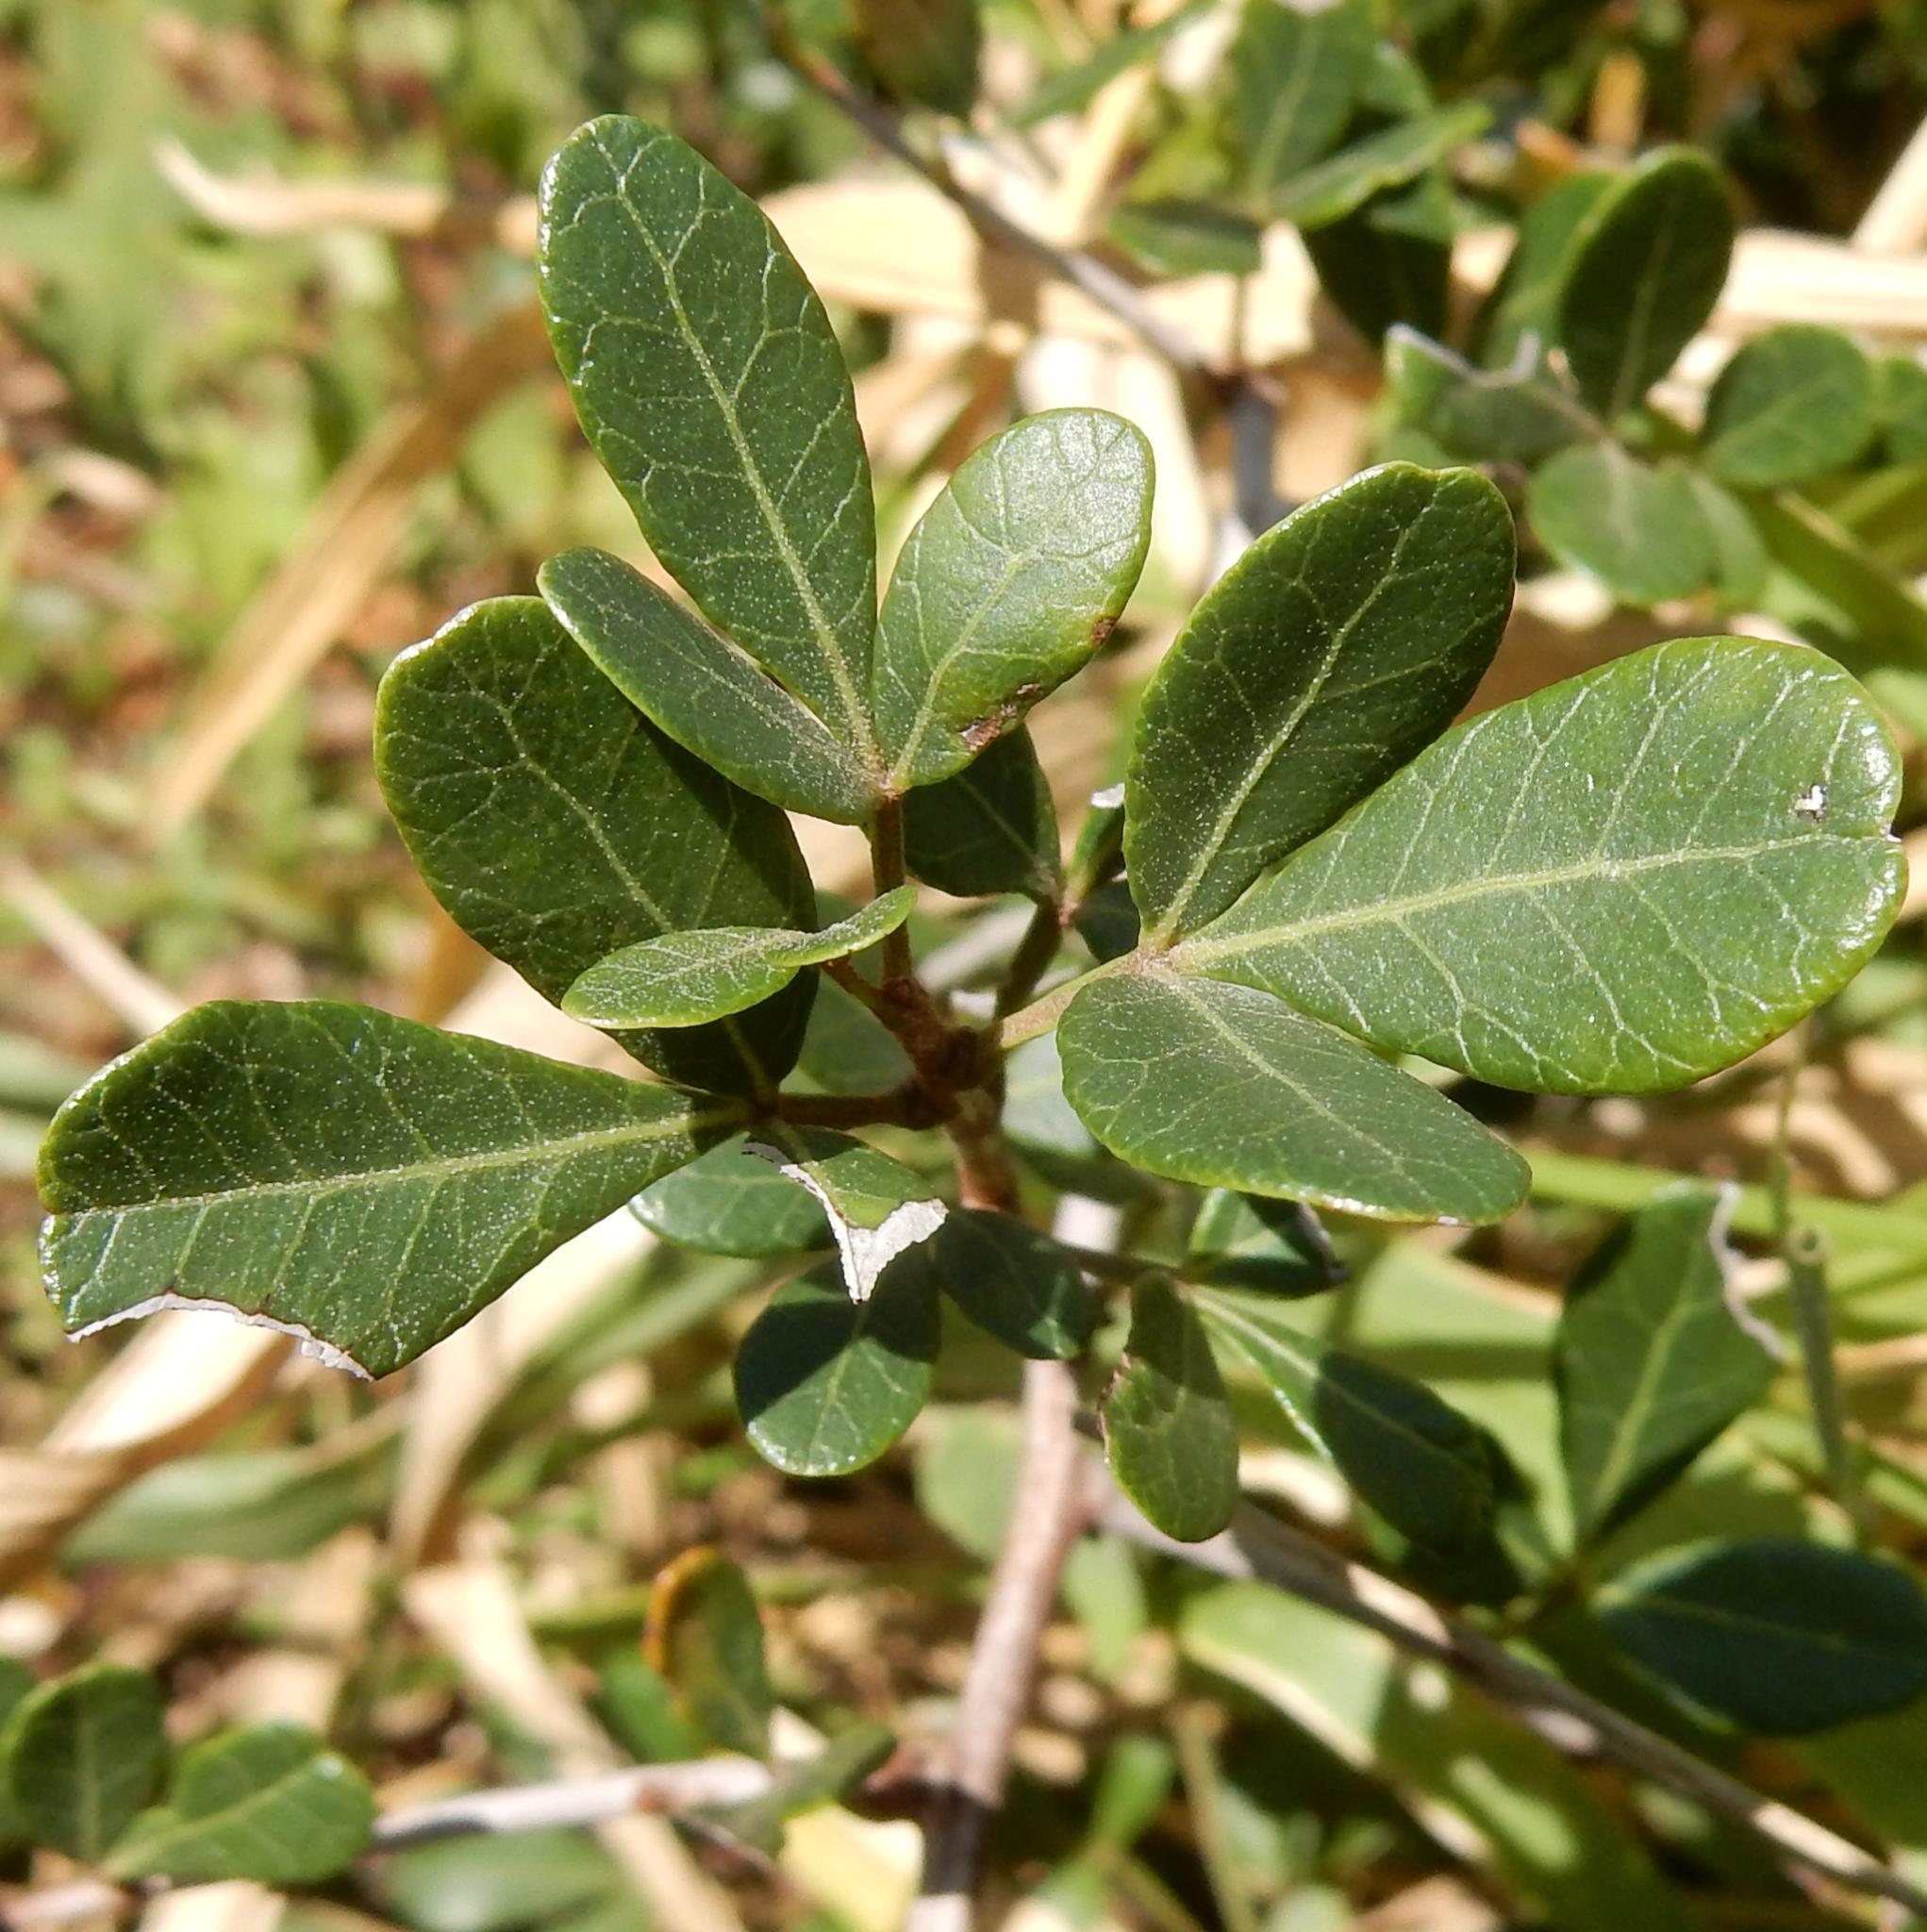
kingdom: Plantae
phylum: Tracheophyta
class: Magnoliopsida
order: Sapindales
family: Anacardiaceae
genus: Searsia
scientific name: Searsia pterota
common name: Winged currant
